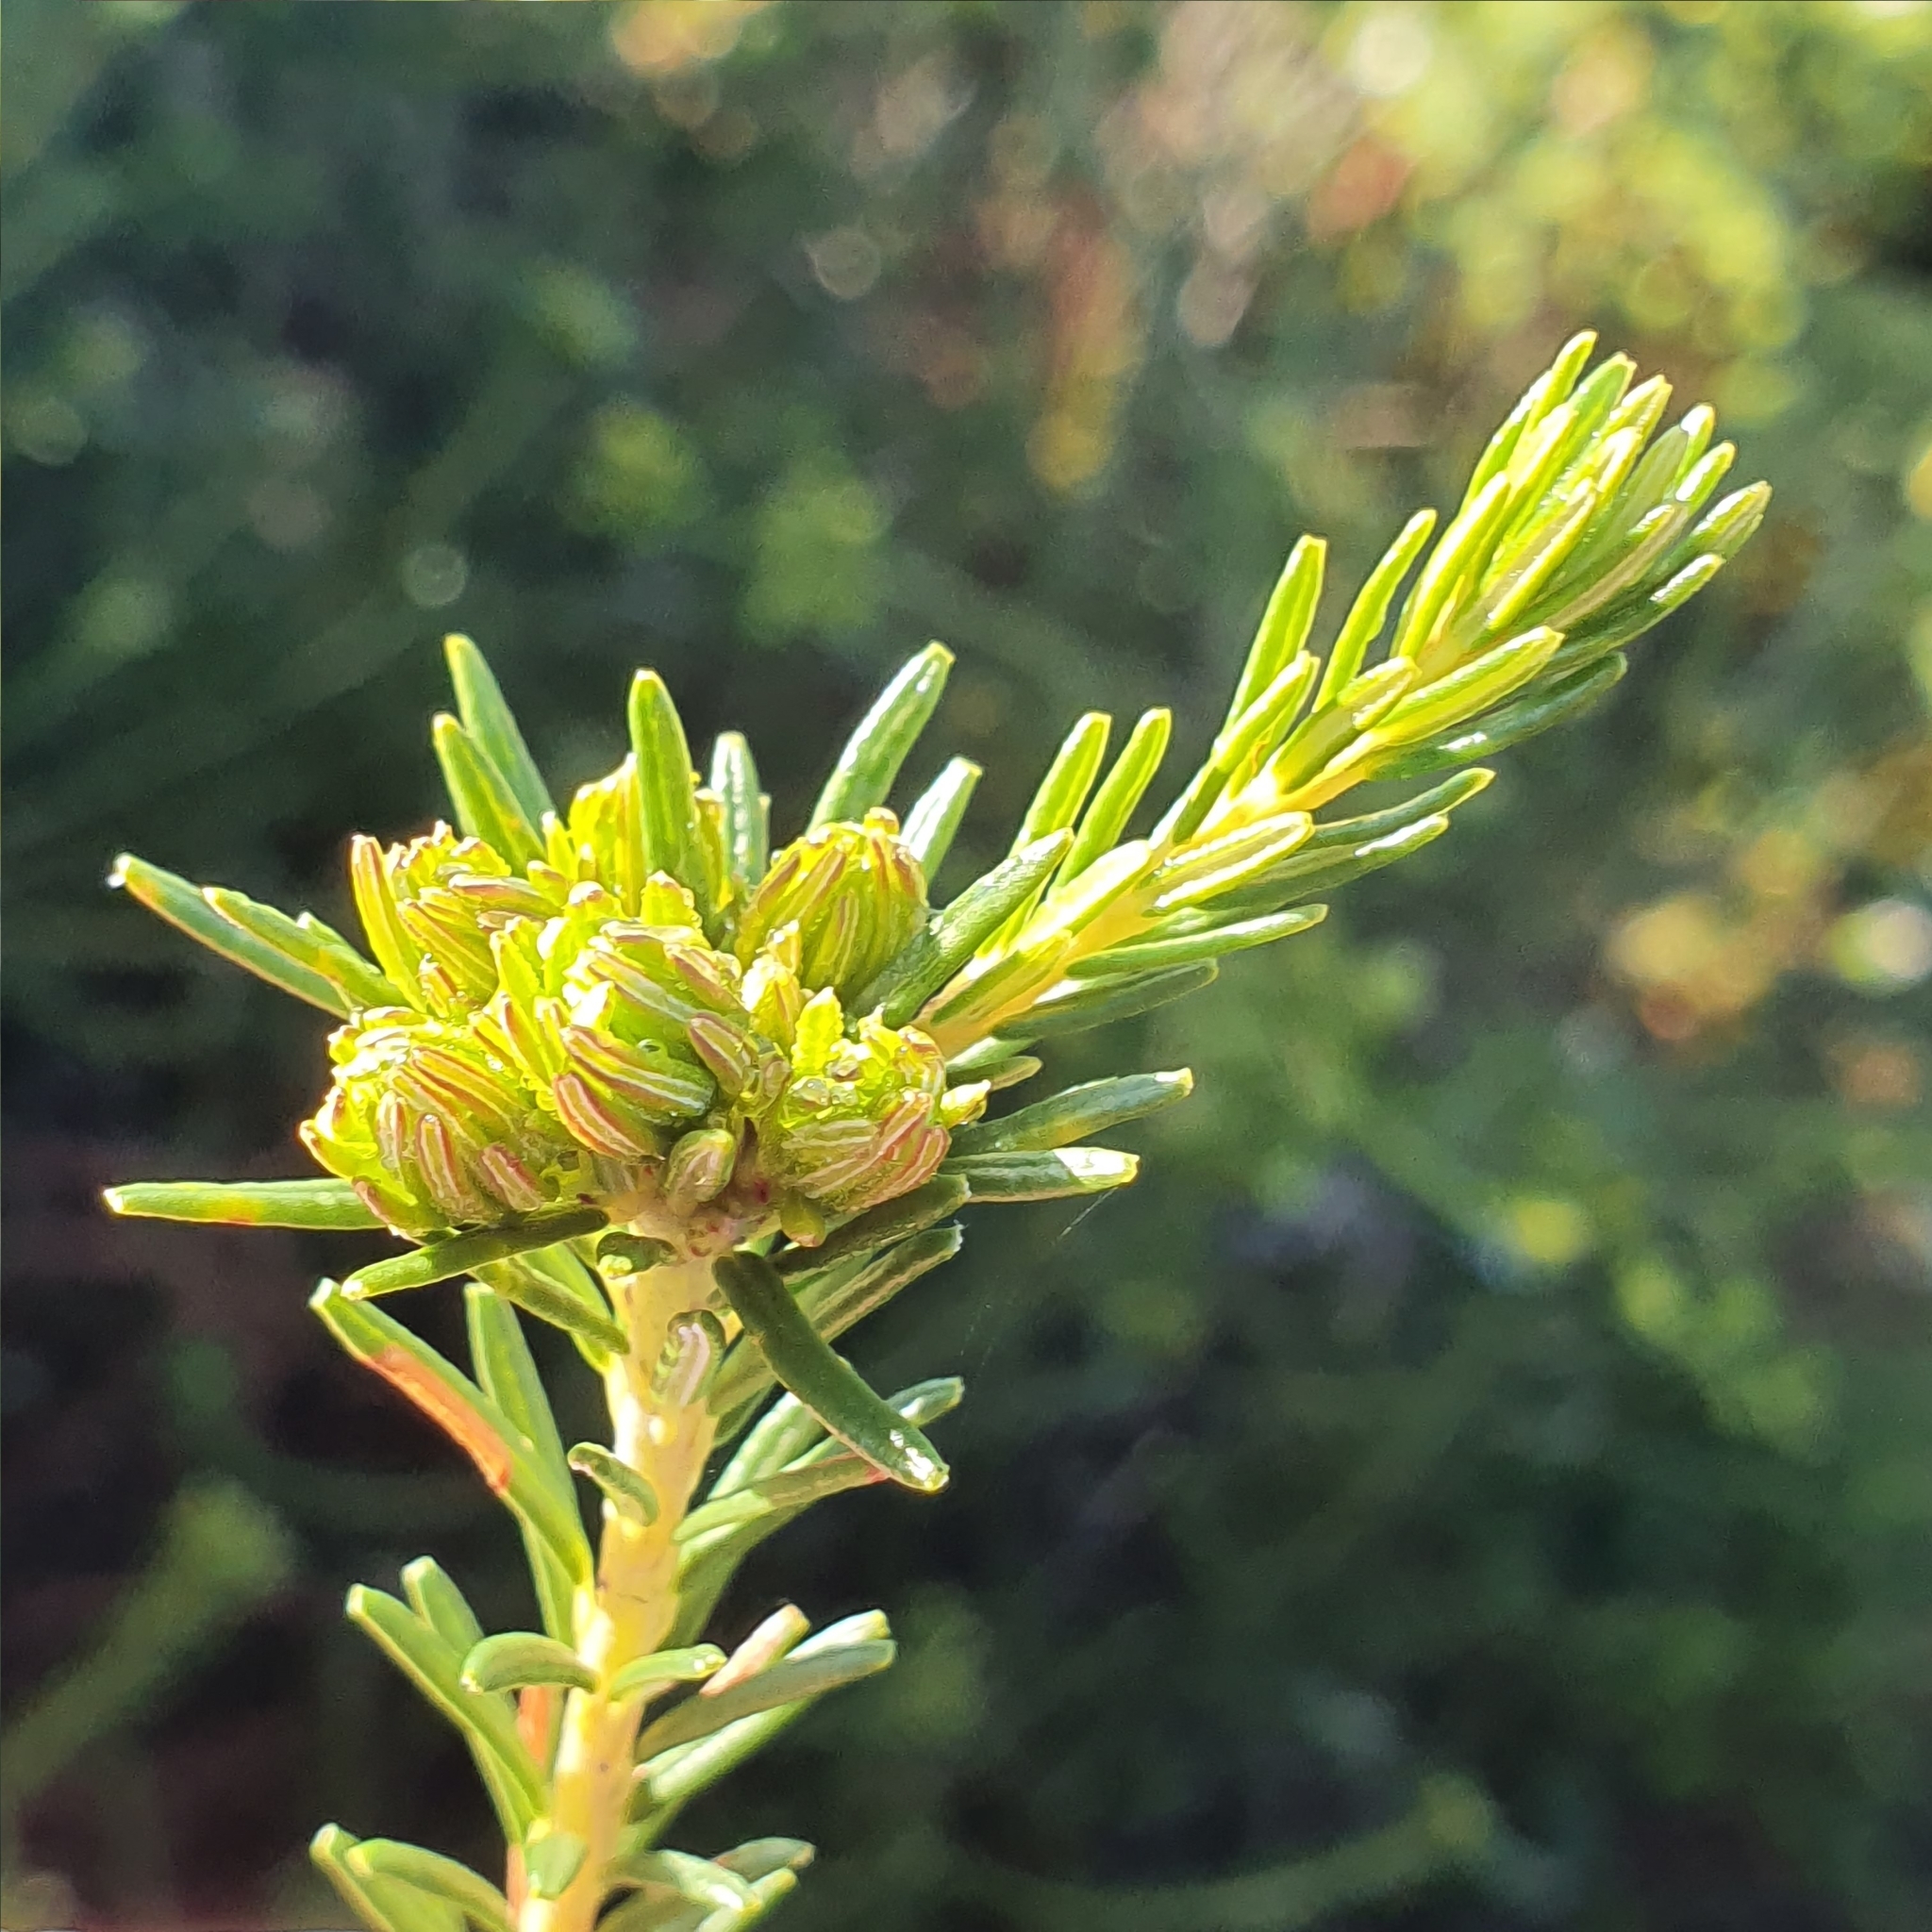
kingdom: Plantae
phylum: Tracheophyta
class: Magnoliopsida
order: Proteales
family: Proteaceae
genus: Banksia
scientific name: Banksia ericifolia
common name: Heath-leaf banksia
